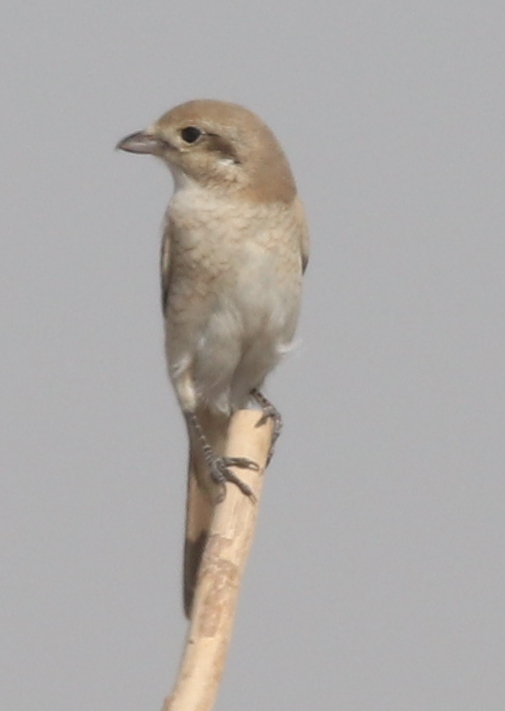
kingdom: Animalia
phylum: Chordata
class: Aves
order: Passeriformes
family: Laniidae
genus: Lanius
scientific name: Lanius isabellinus
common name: Isabelline shrike
